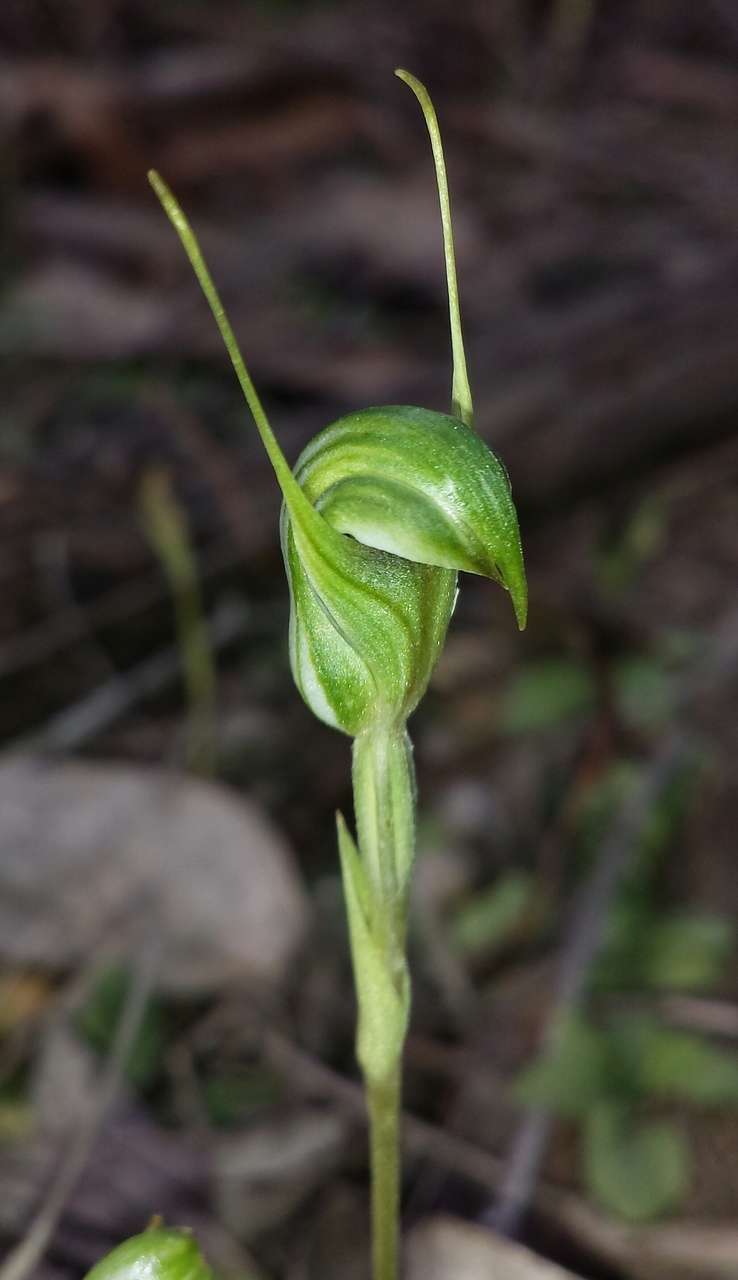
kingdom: Plantae
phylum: Tracheophyta
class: Liliopsida
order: Asparagales
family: Orchidaceae
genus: Pterostylis
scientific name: Pterostylis concinna
